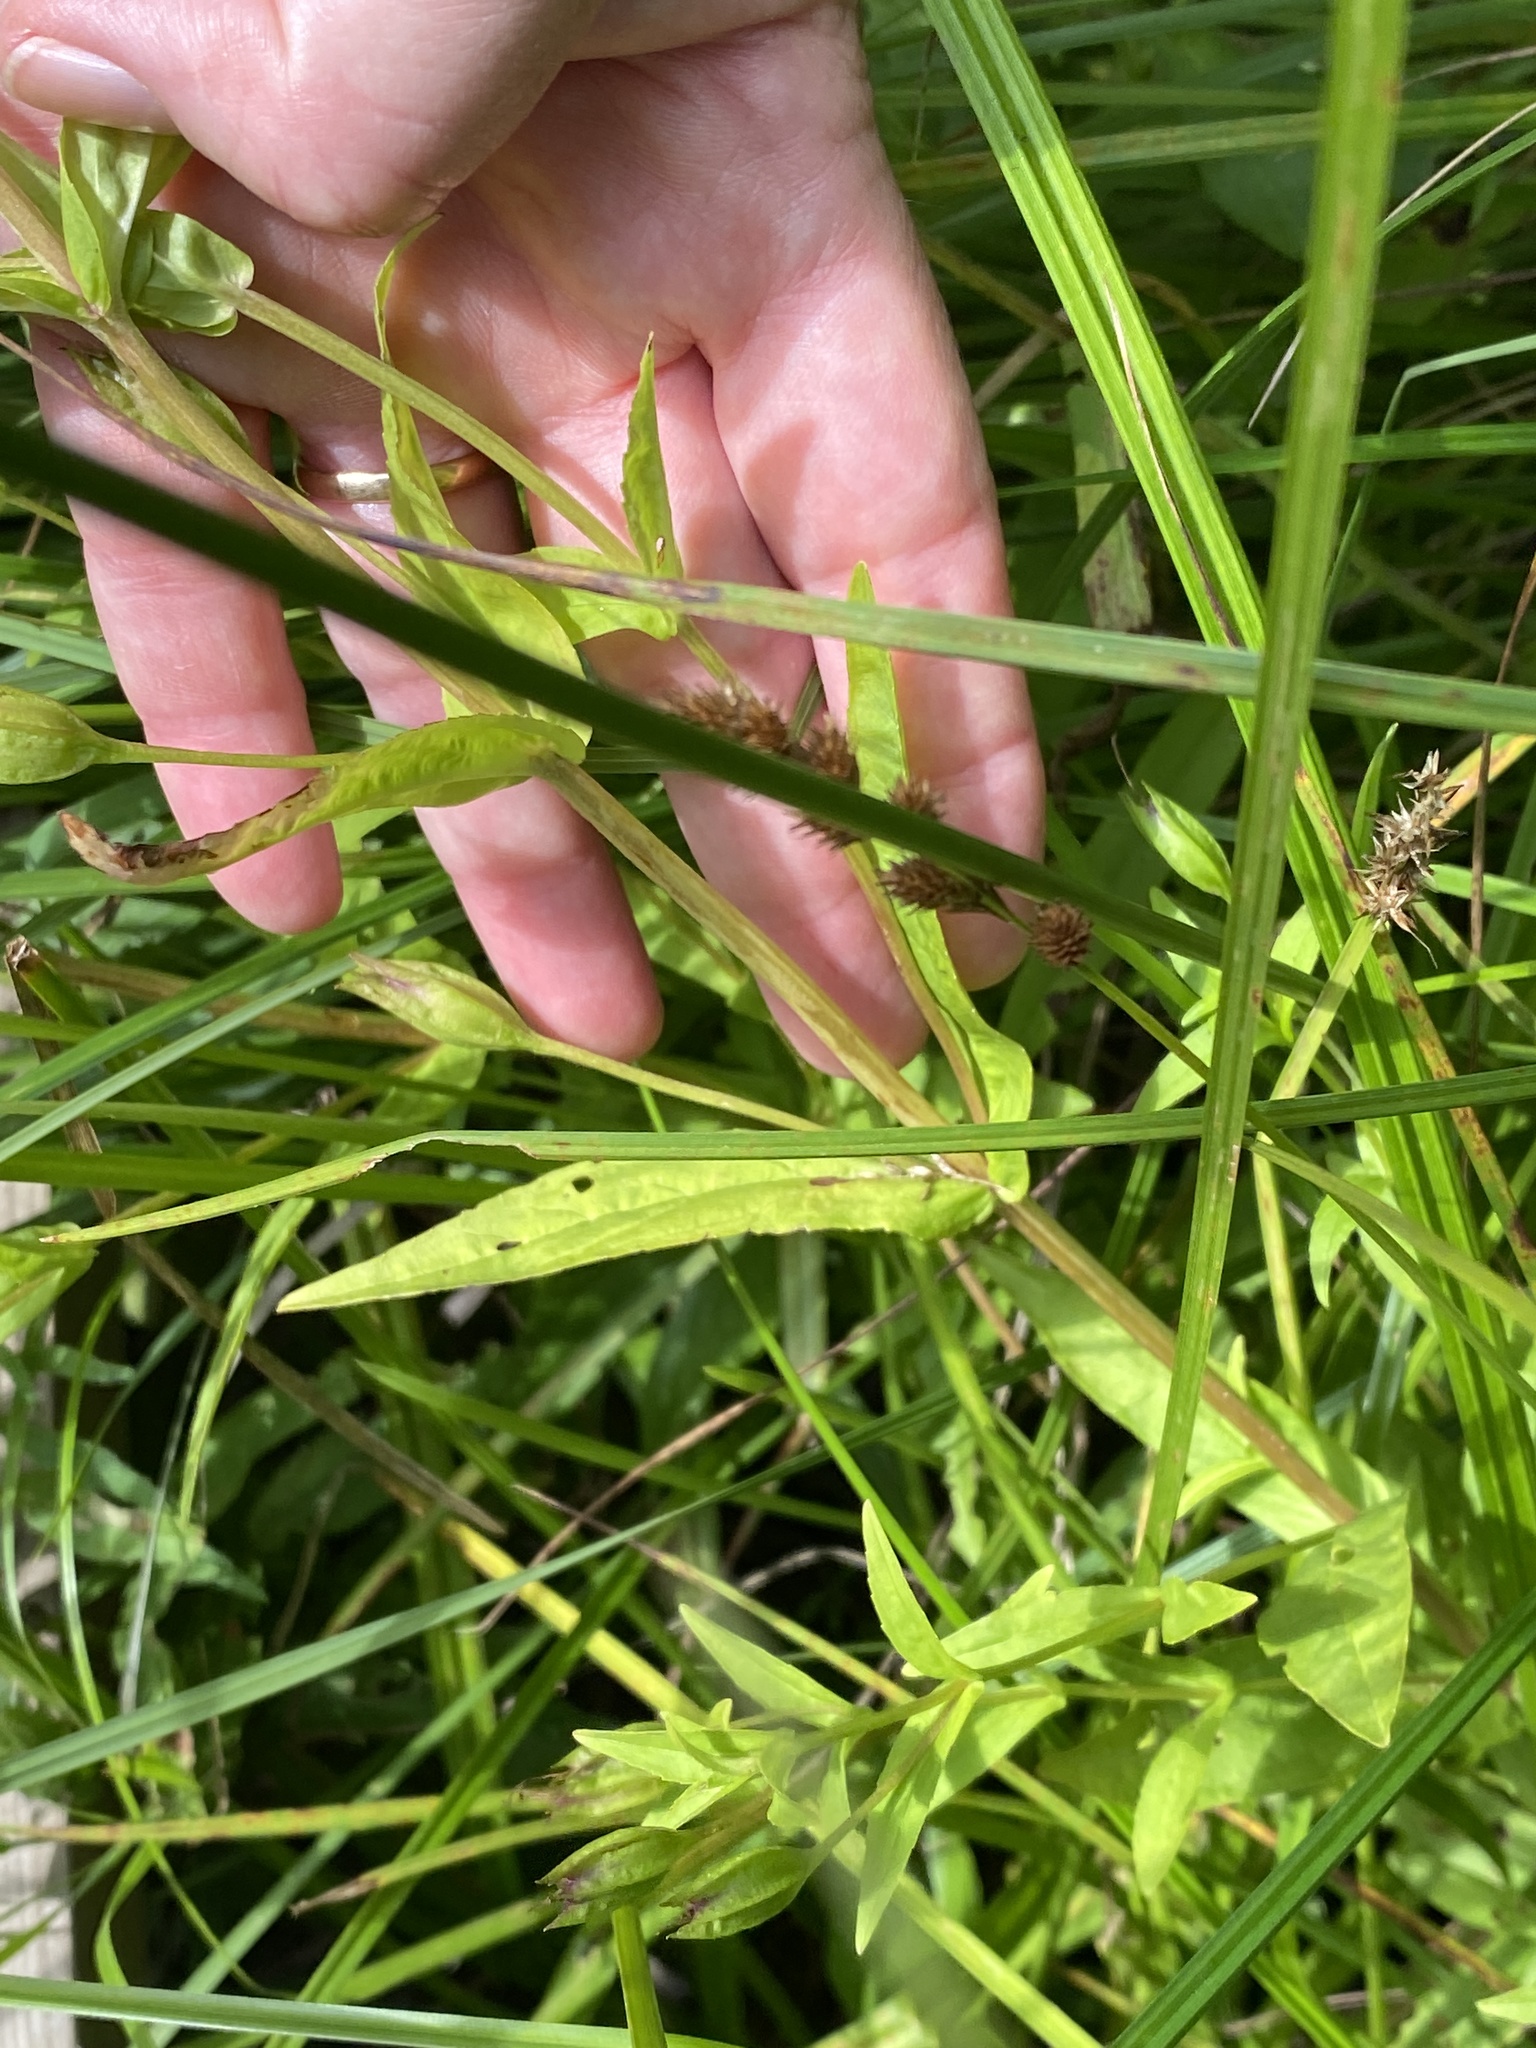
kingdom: Plantae
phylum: Tracheophyta
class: Magnoliopsida
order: Lamiales
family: Phrymaceae
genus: Mimulus
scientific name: Mimulus ringens
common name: Allegheny monkeyflower
